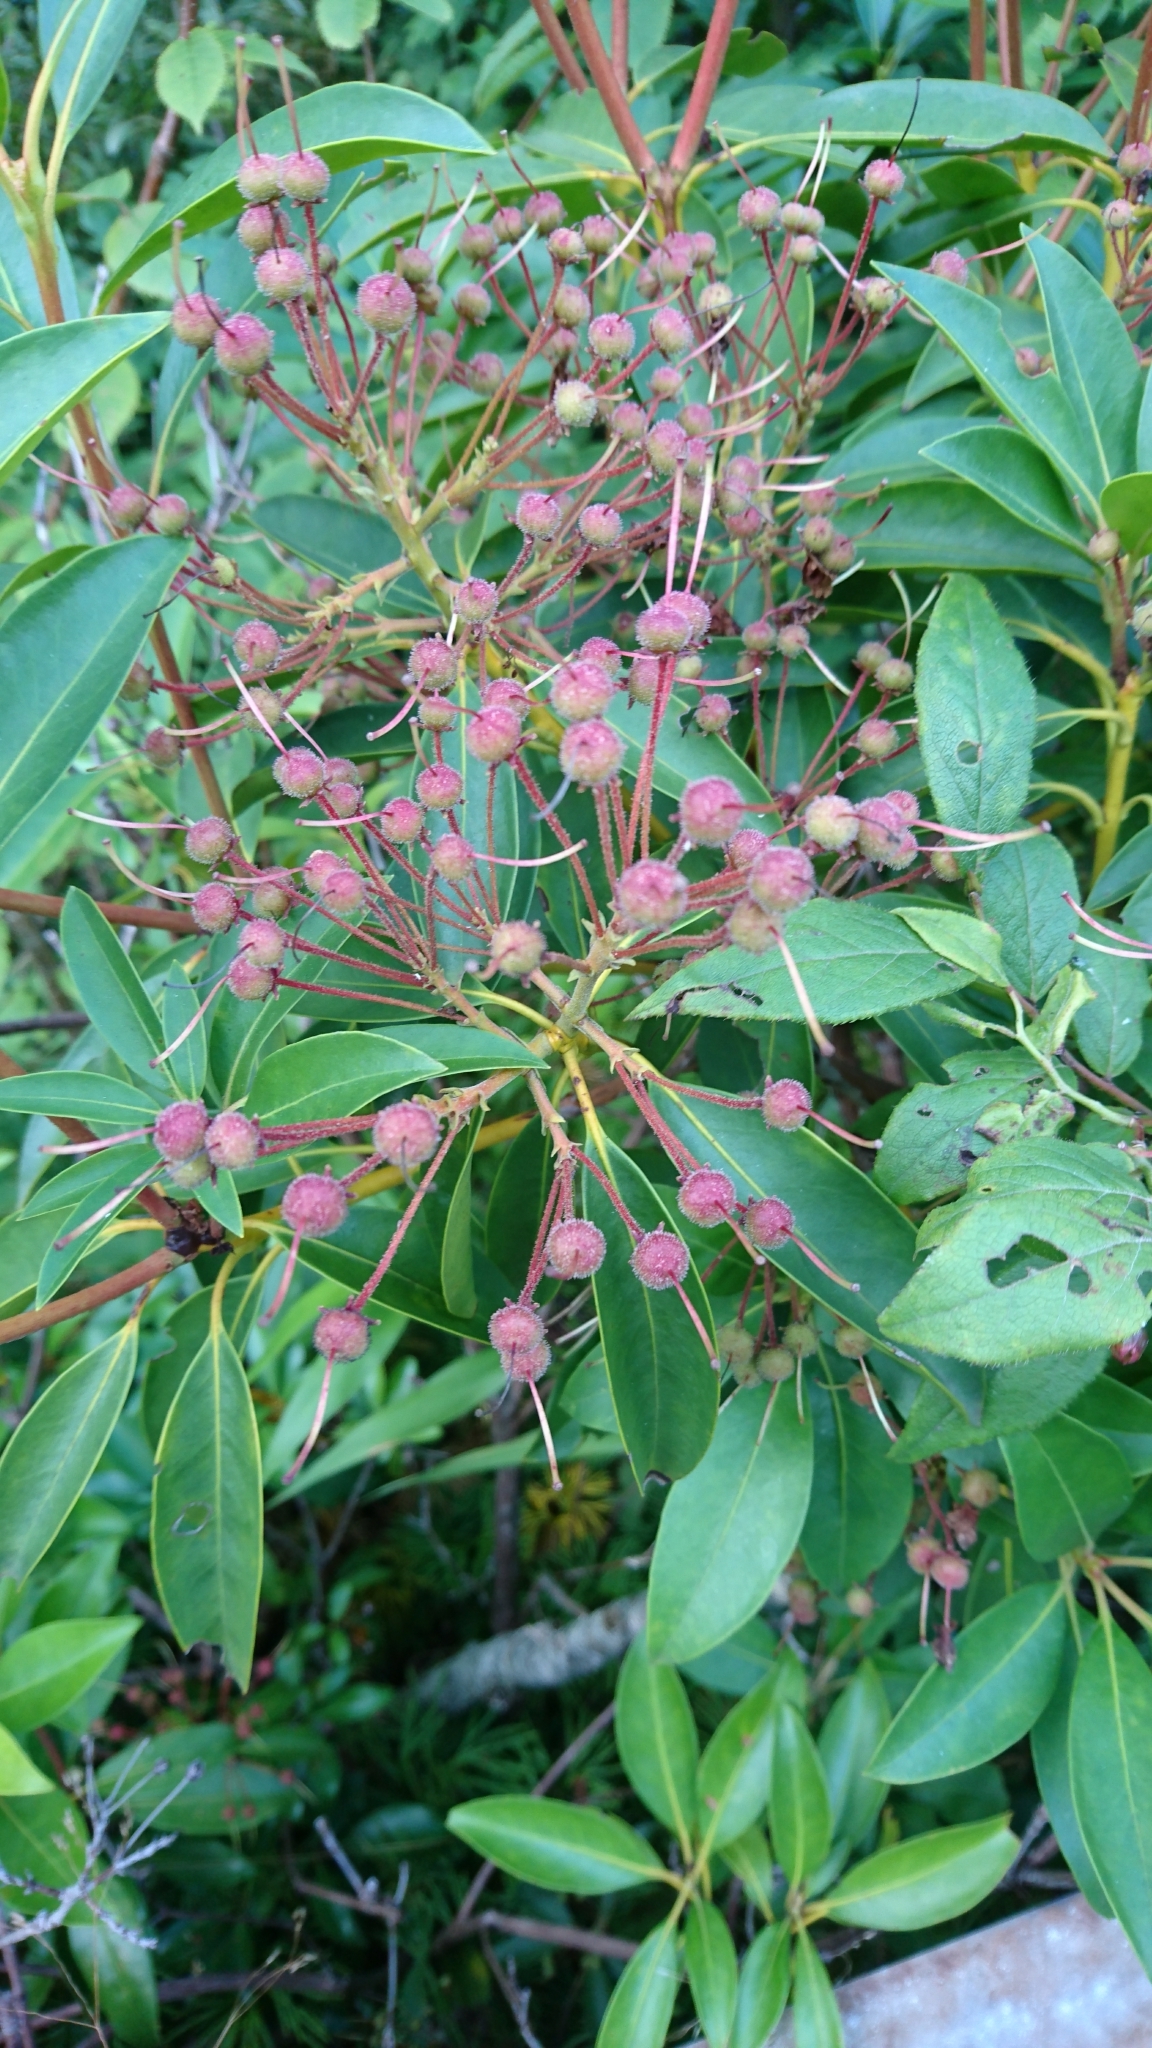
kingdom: Plantae
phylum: Tracheophyta
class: Magnoliopsida
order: Ericales
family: Ericaceae
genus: Kalmia
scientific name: Kalmia latifolia
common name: Mountain-laurel
